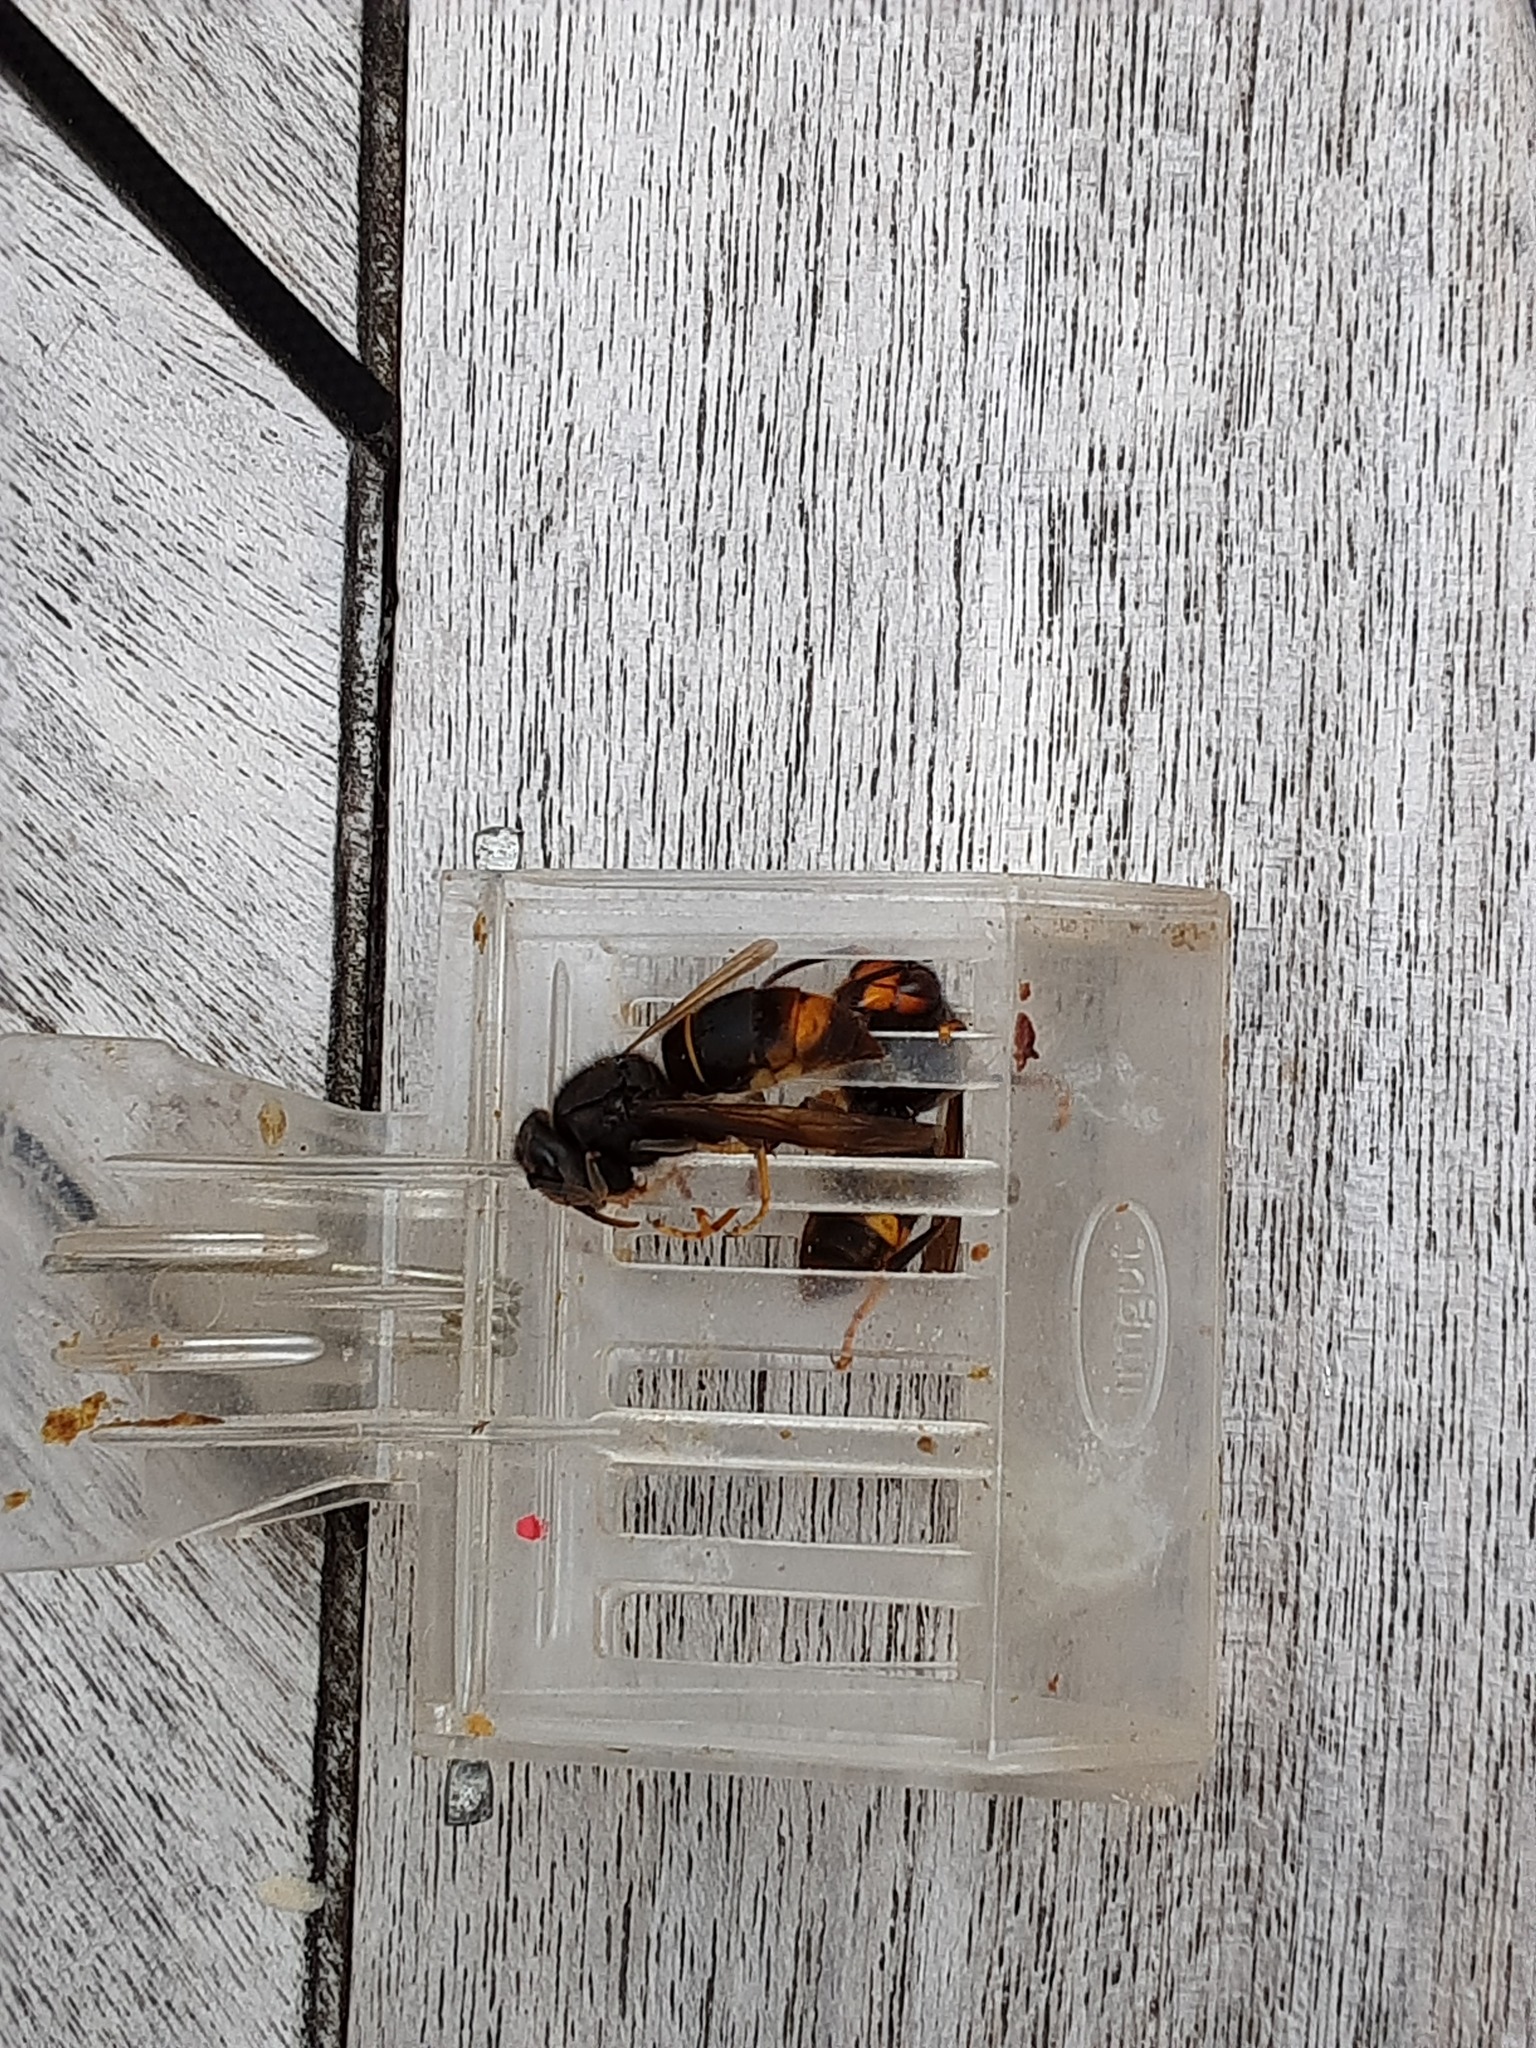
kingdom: Animalia
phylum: Arthropoda
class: Insecta
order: Hymenoptera
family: Vespidae
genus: Vespa
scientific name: Vespa velutina
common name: Asian hornet
